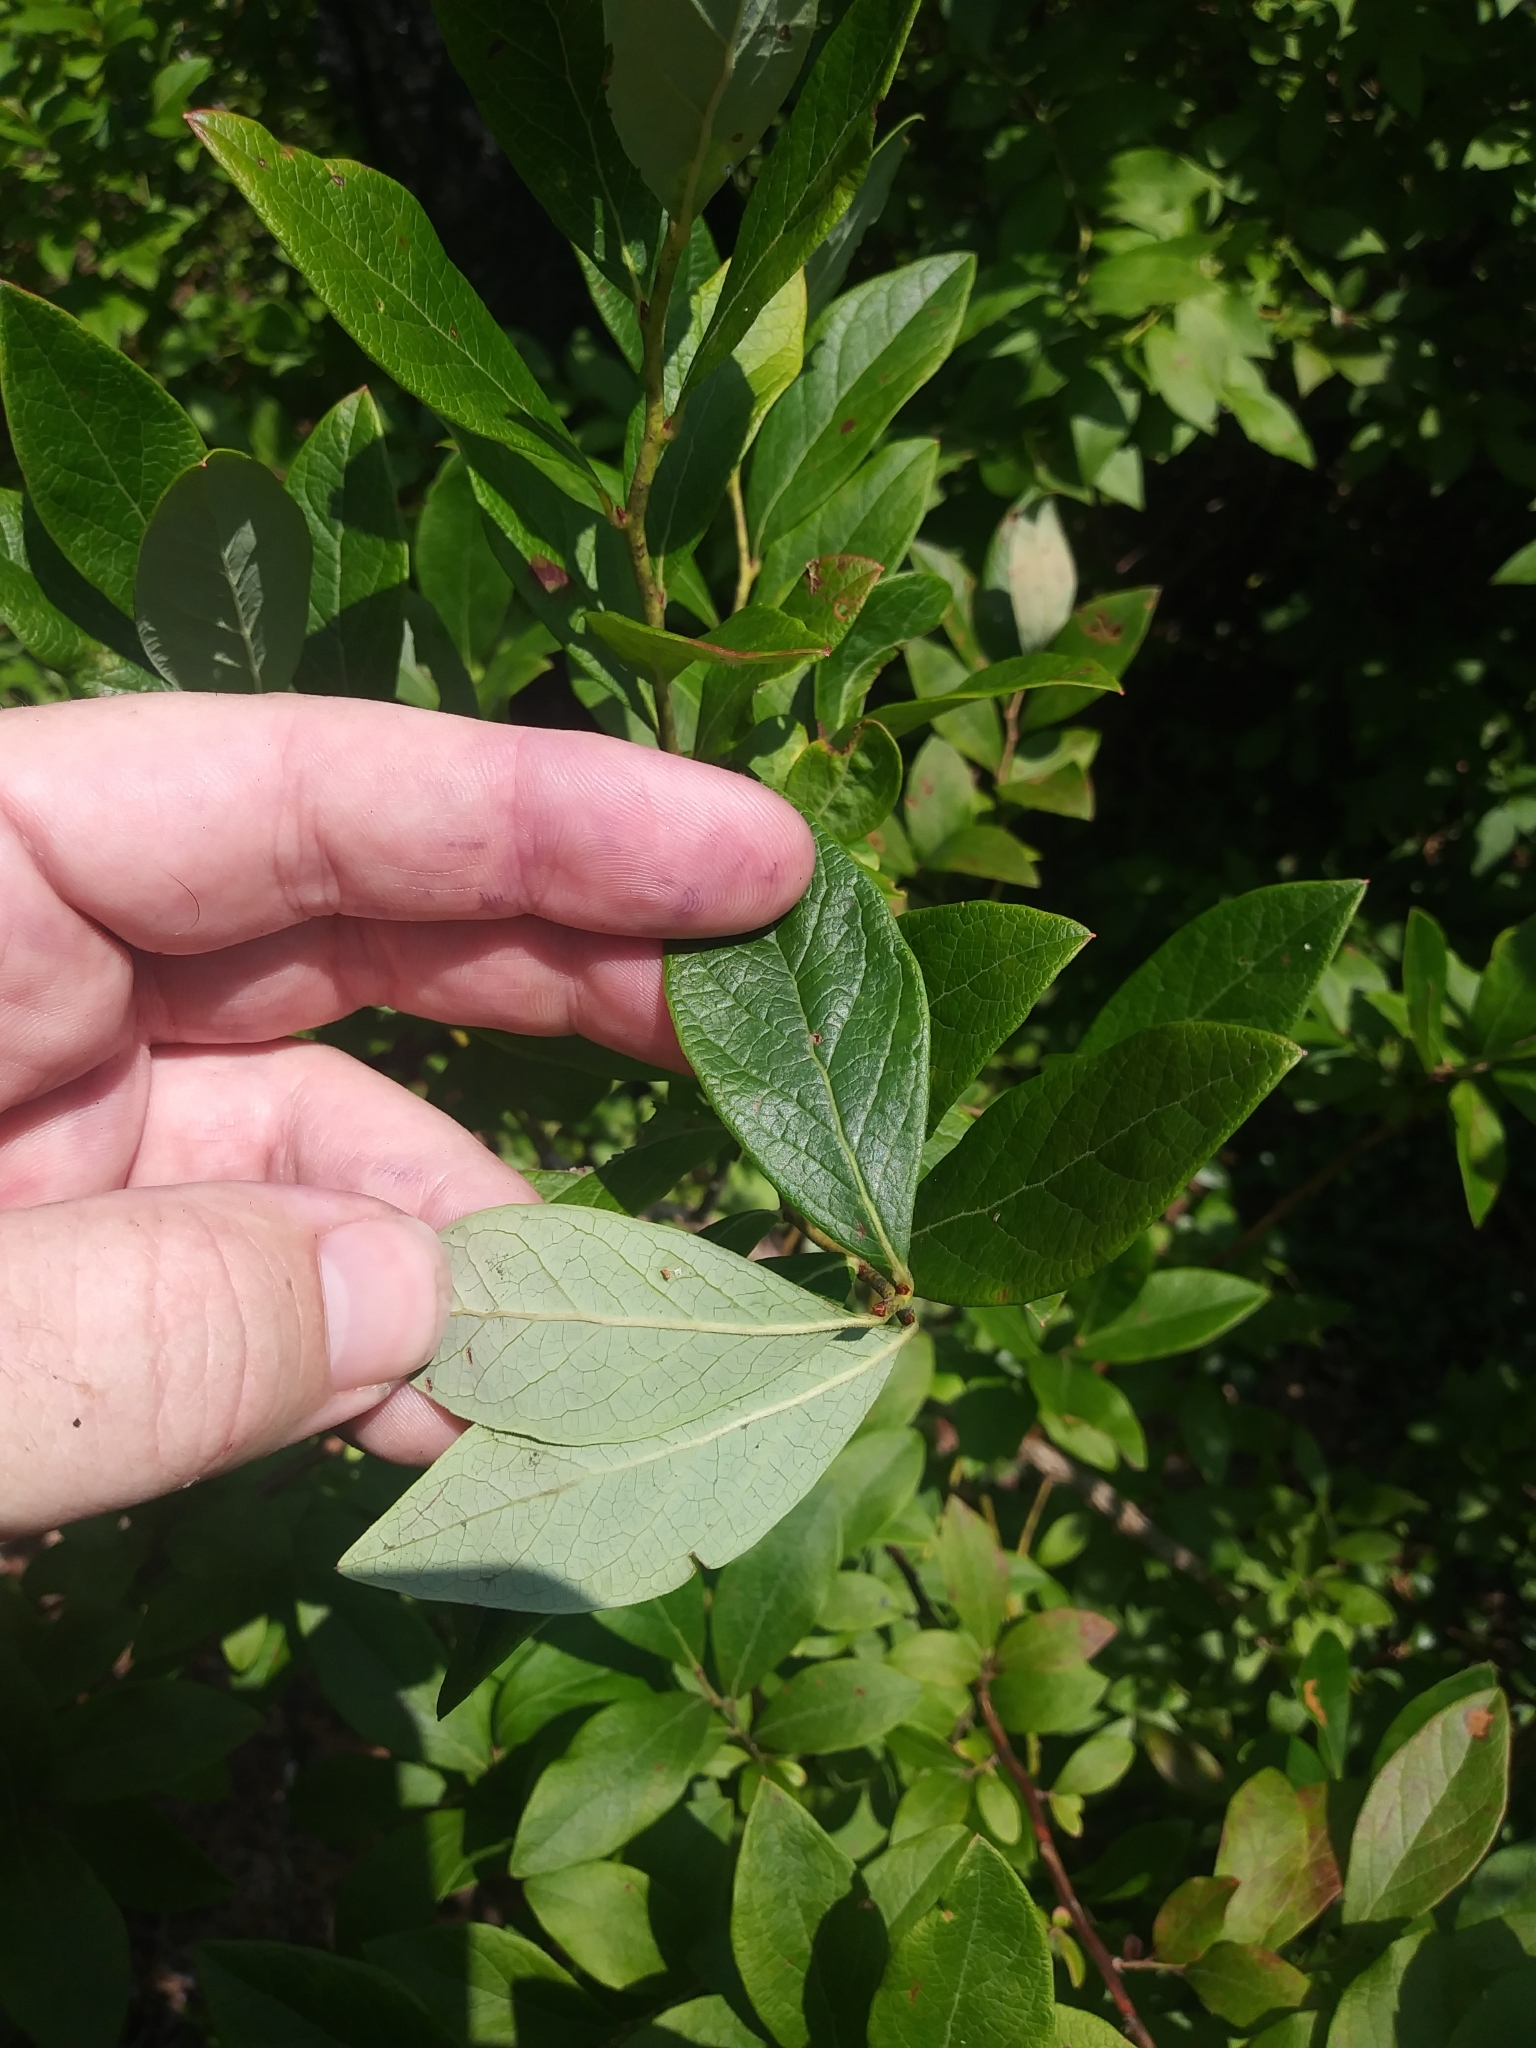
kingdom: Plantae
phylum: Tracheophyta
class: Magnoliopsida
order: Ericales
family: Ericaceae
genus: Vaccinium
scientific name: Vaccinium caesariense
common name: New jersey highbush blueberry
